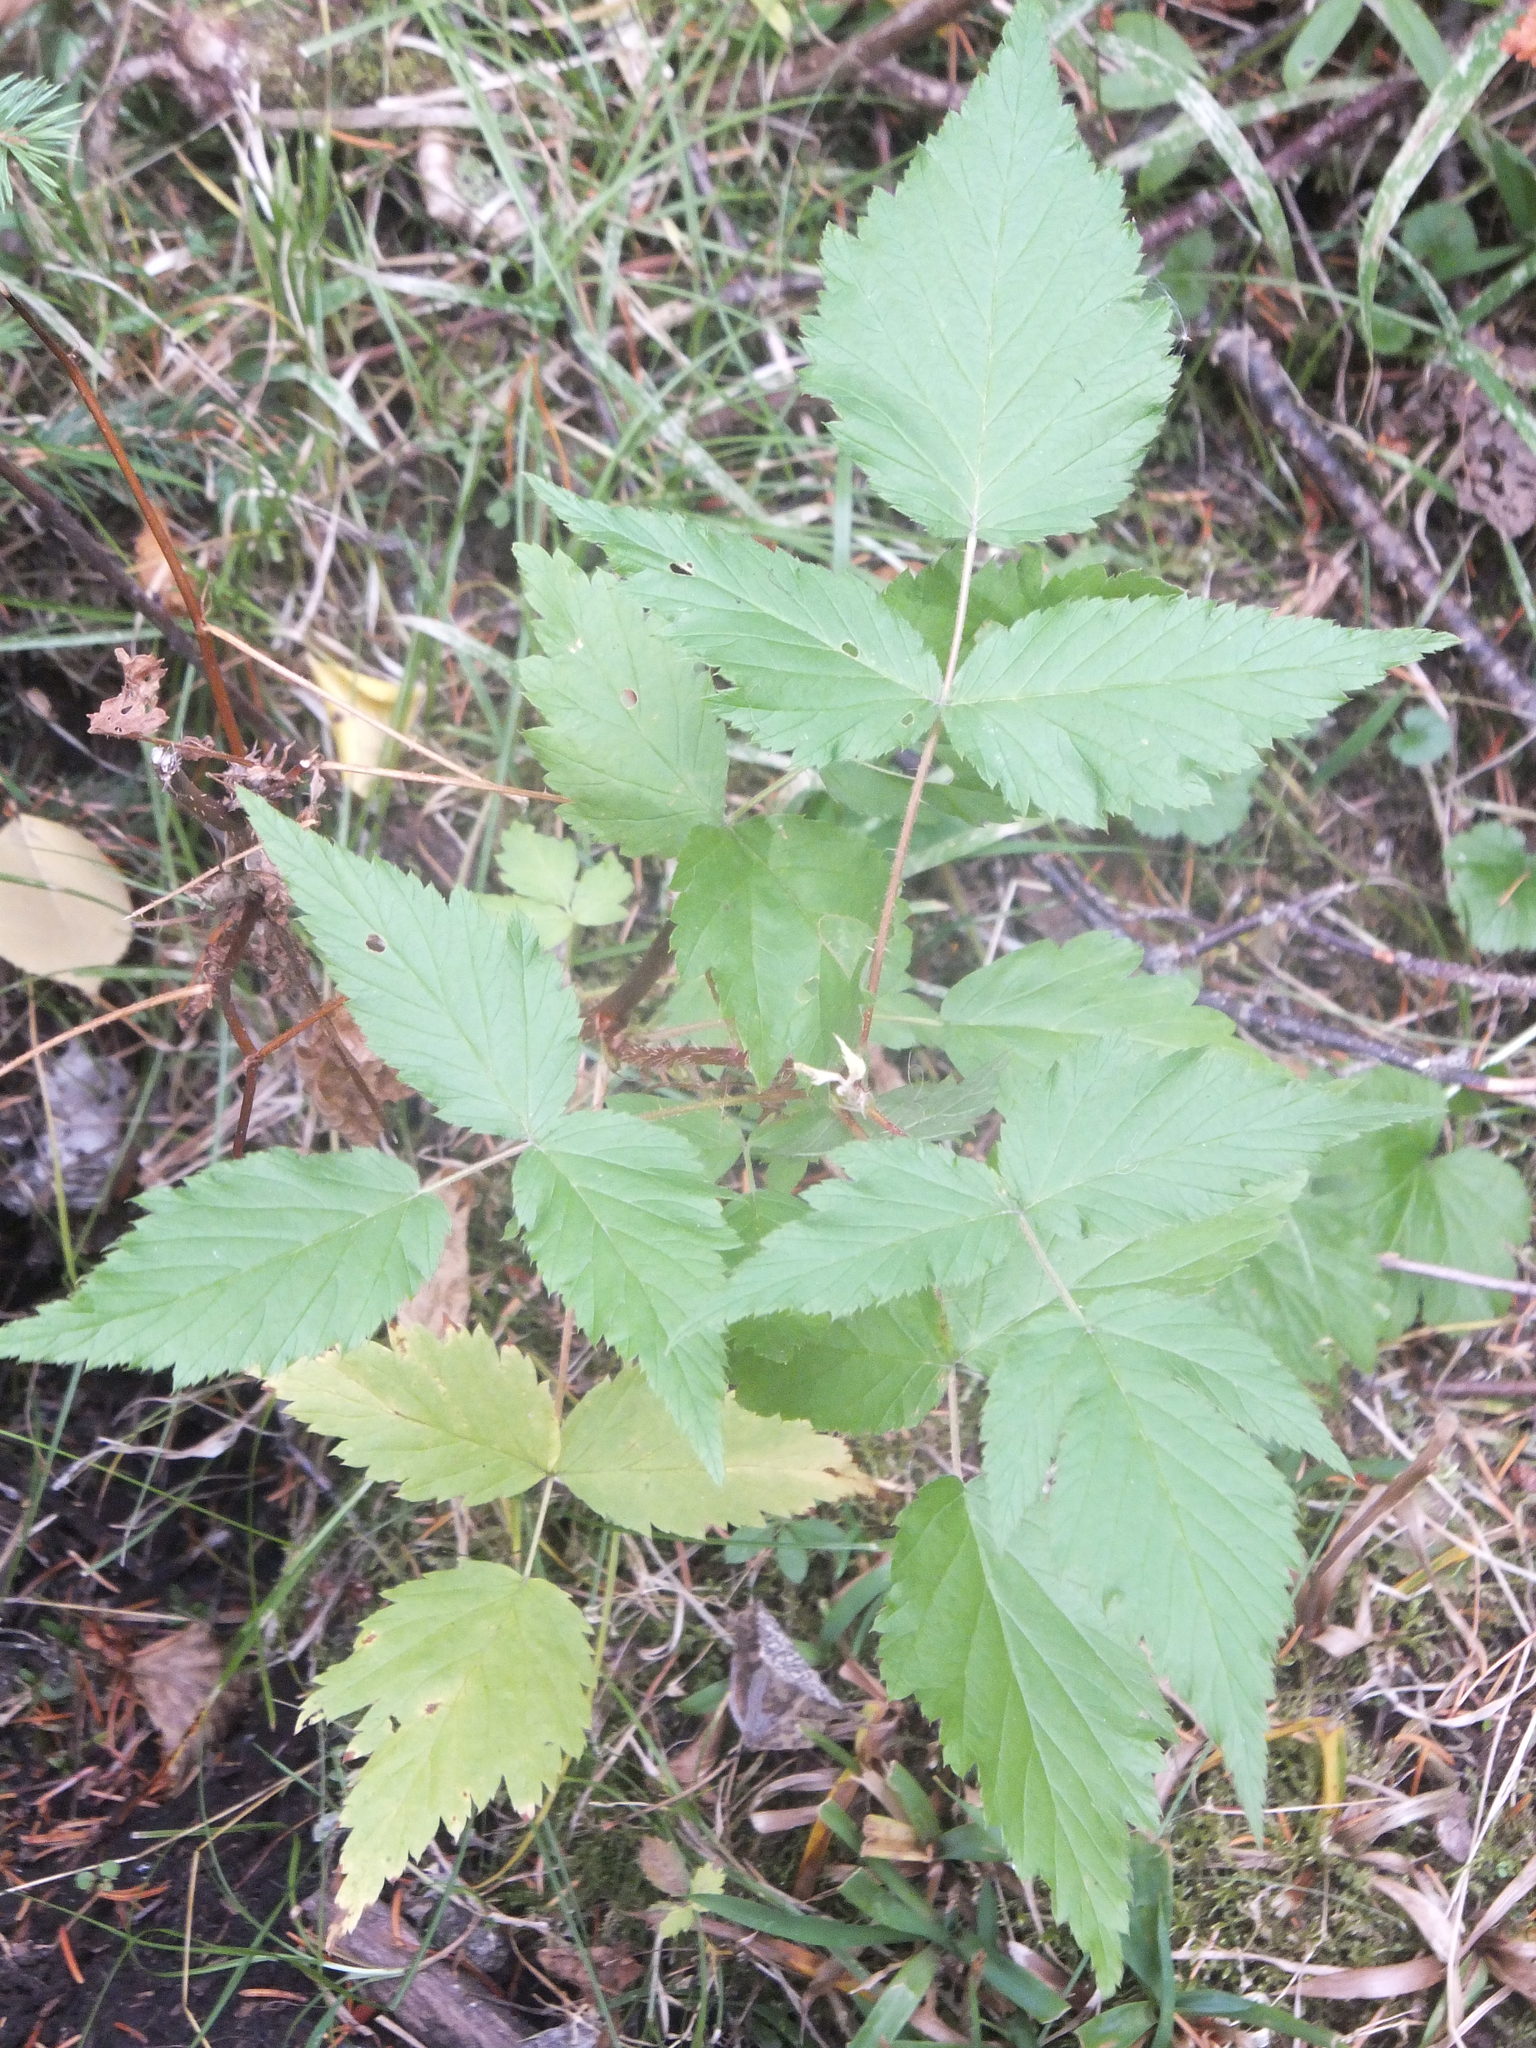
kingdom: Plantae
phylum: Tracheophyta
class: Magnoliopsida
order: Rosales
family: Rosaceae
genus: Rubus
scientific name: Rubus idaeus
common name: Raspberry
